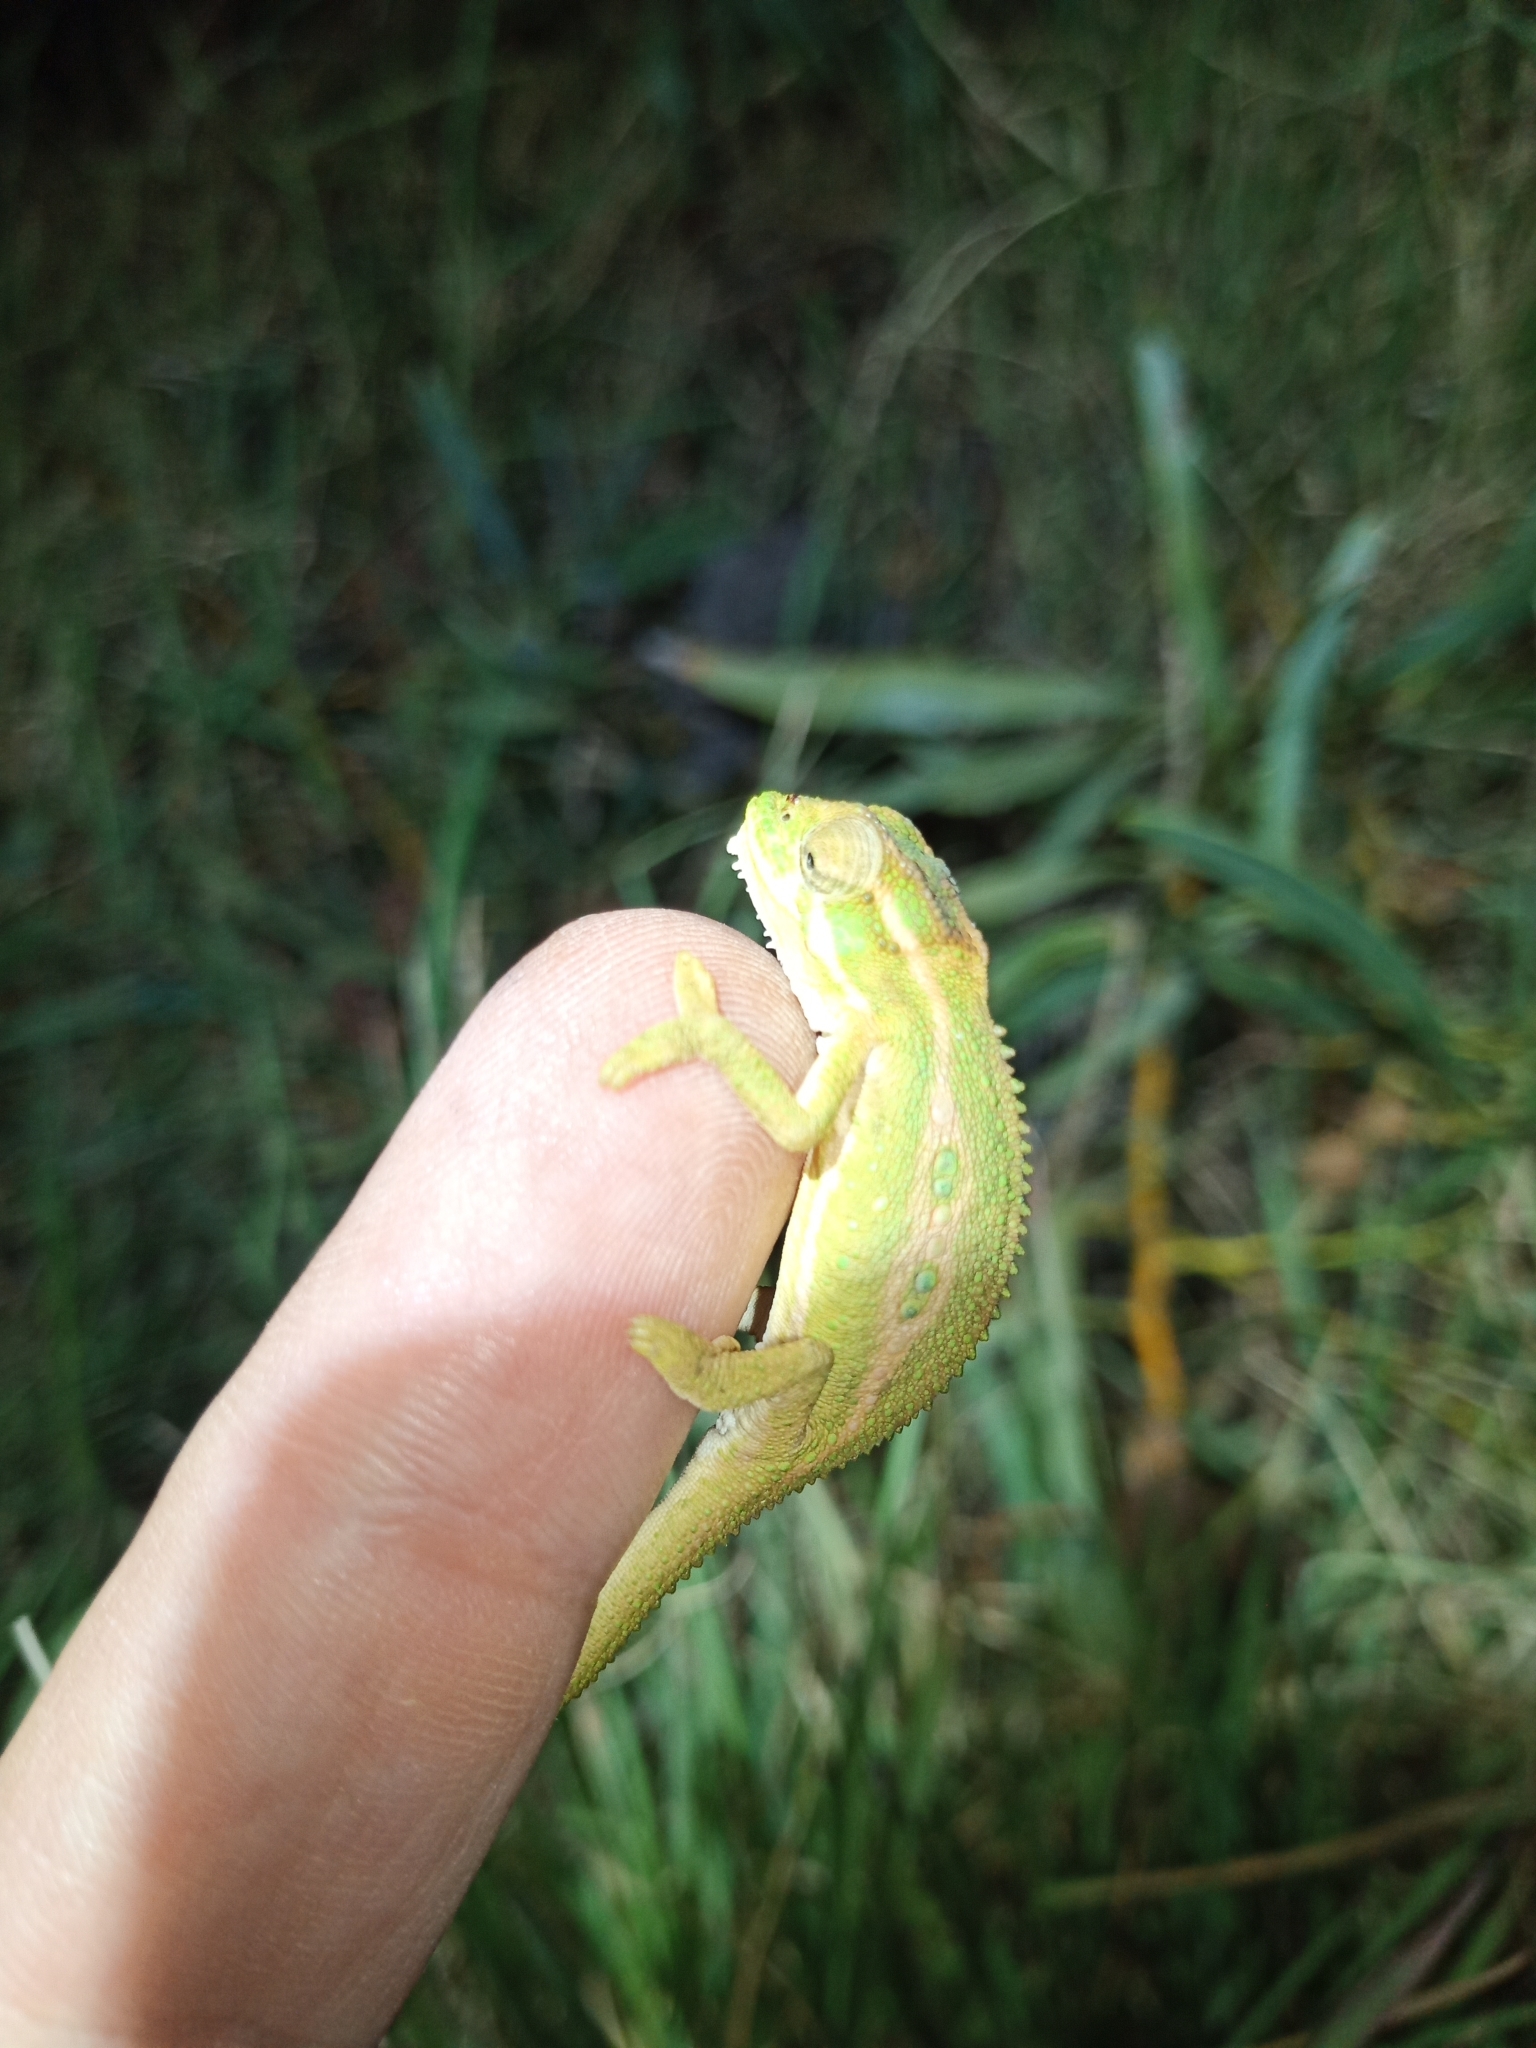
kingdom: Animalia
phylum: Chordata
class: Squamata
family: Chamaeleonidae
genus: Bradypodion
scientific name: Bradypodion pumilum
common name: Cape dwarf chameleon
